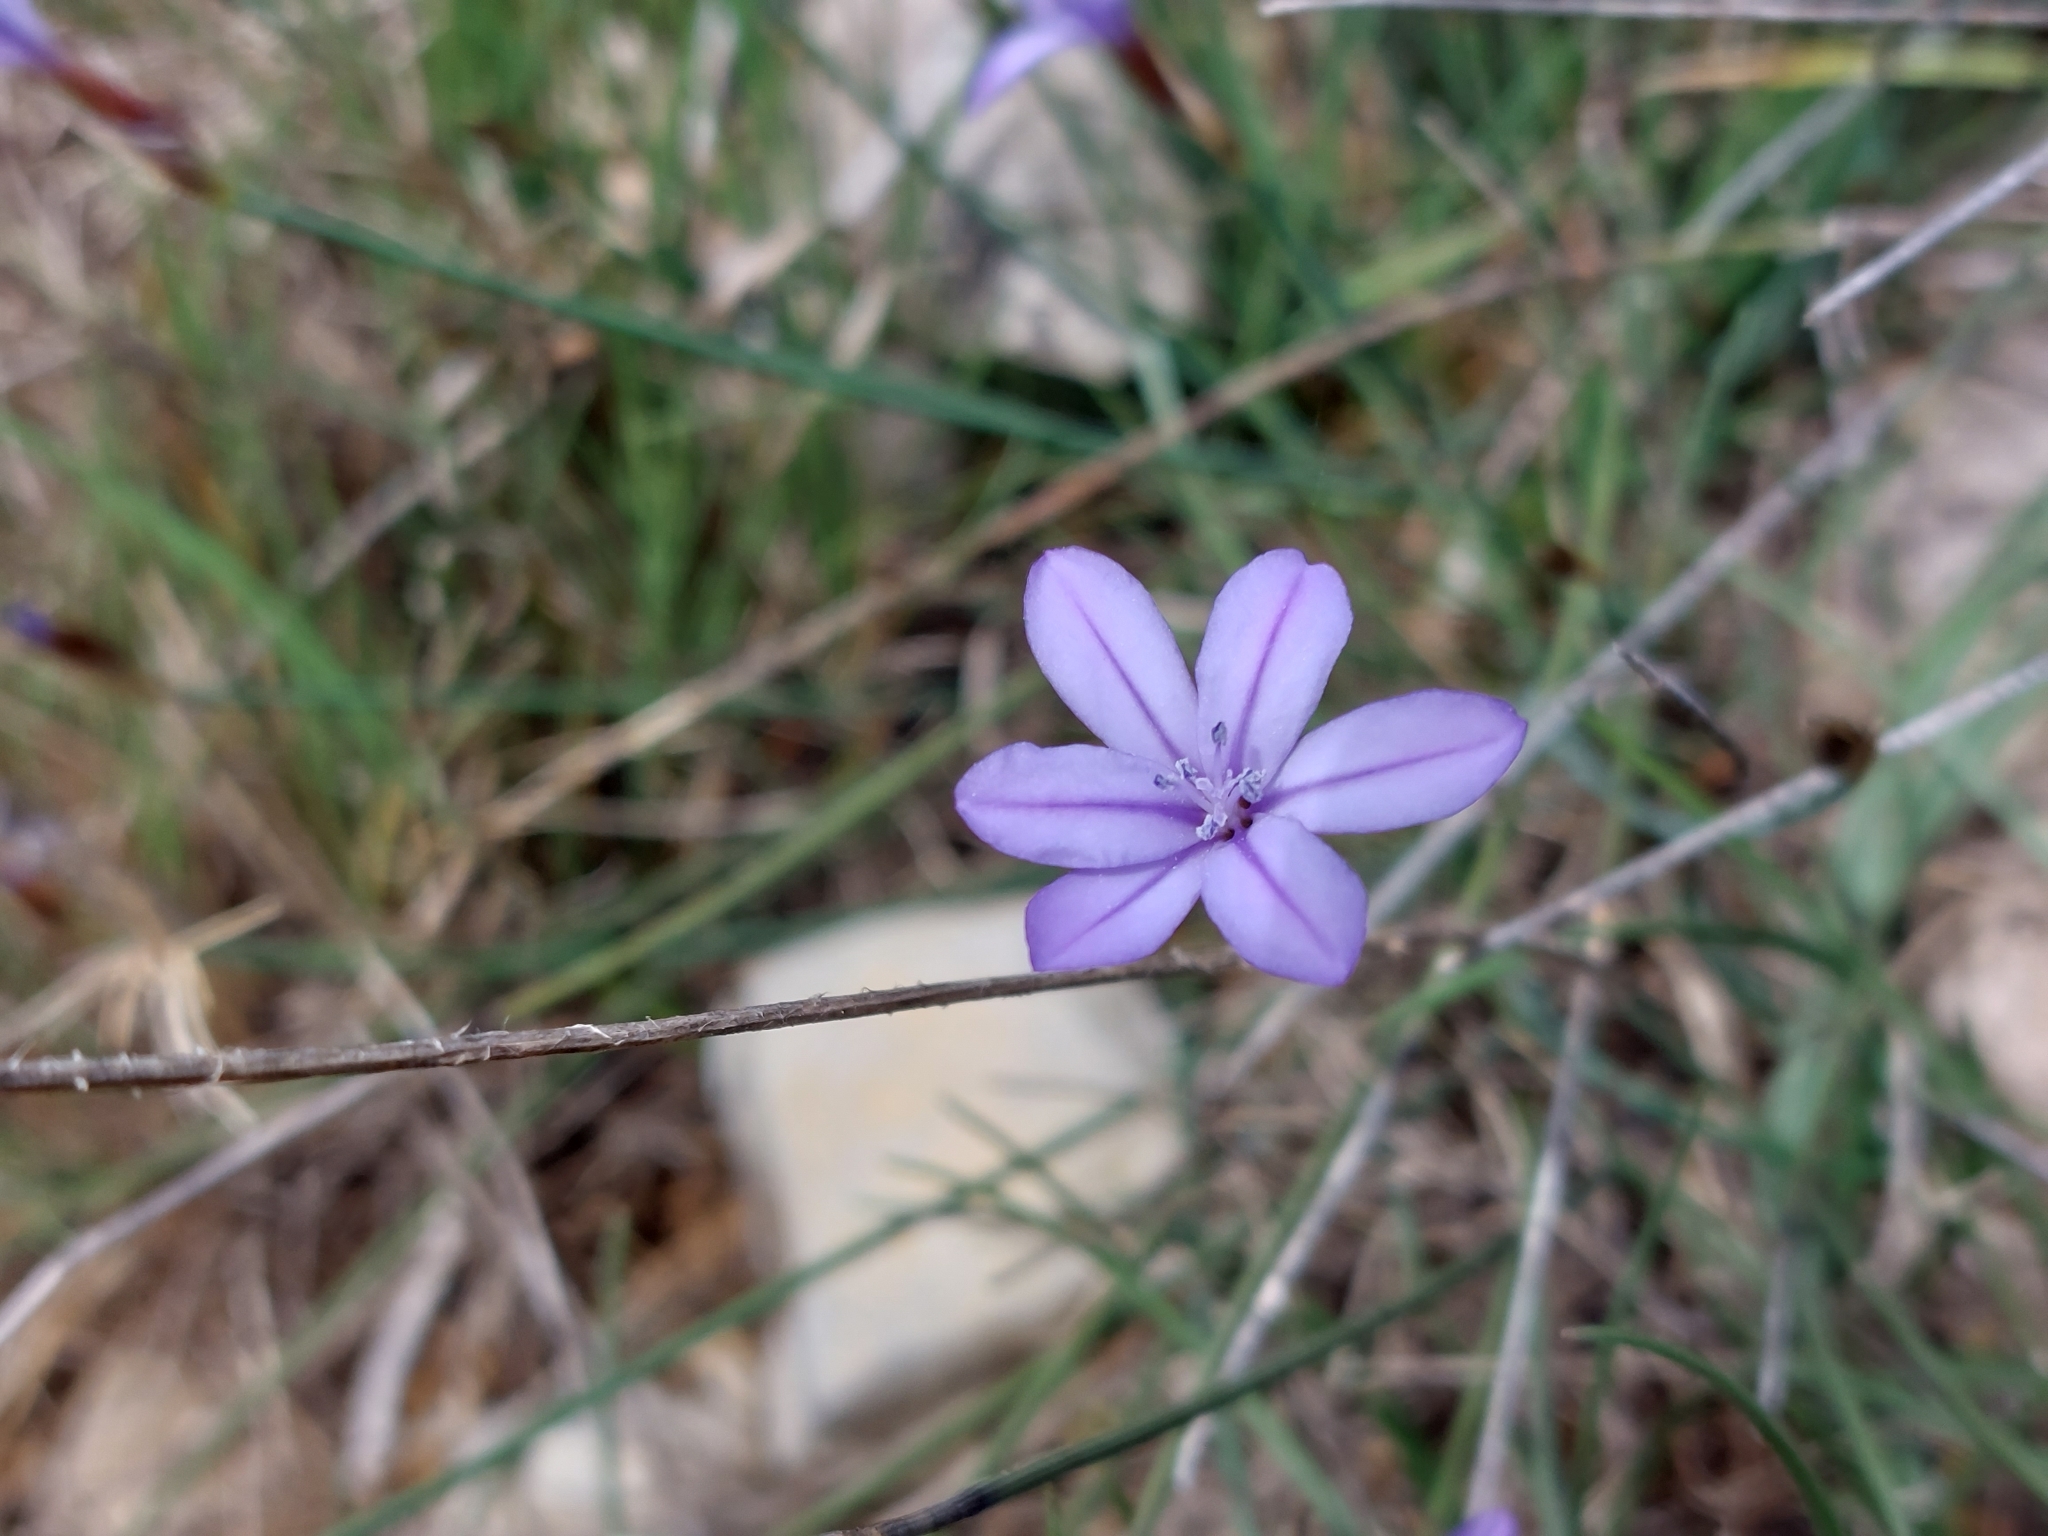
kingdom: Plantae
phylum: Tracheophyta
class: Liliopsida
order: Asparagales
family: Asparagaceae
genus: Aphyllanthes
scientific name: Aphyllanthes monspeliensis
